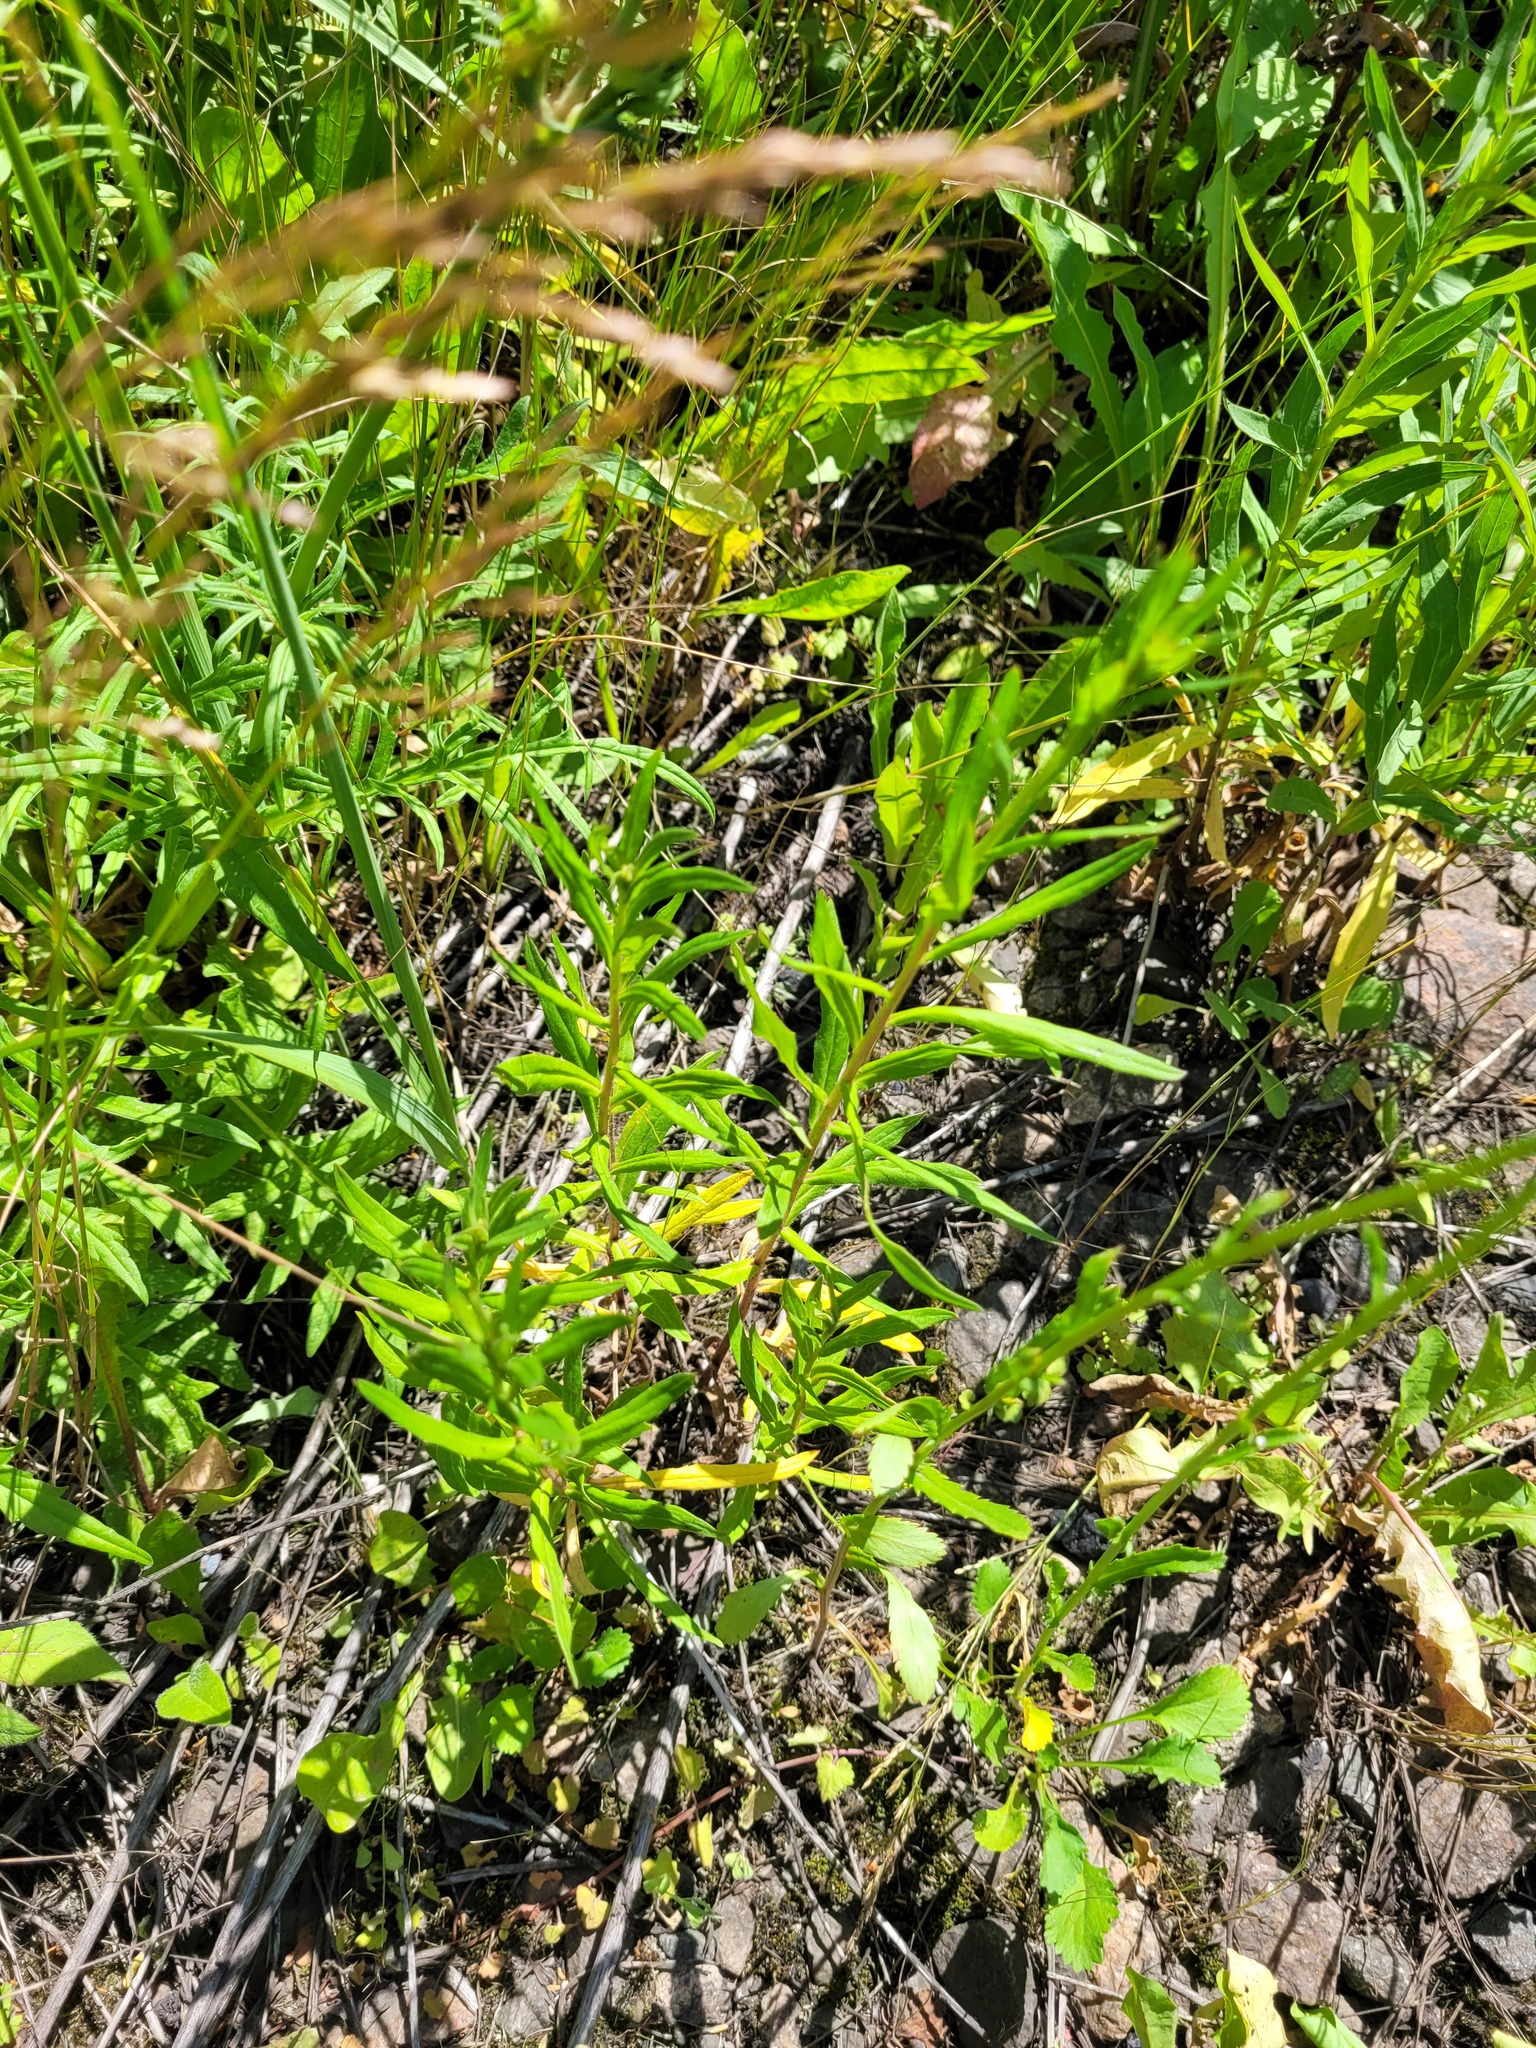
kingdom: Plantae
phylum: Tracheophyta
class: Magnoliopsida
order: Asterales
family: Asteraceae
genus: Hieracium
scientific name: Hieracium umbellatum
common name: Northern hawkweed
